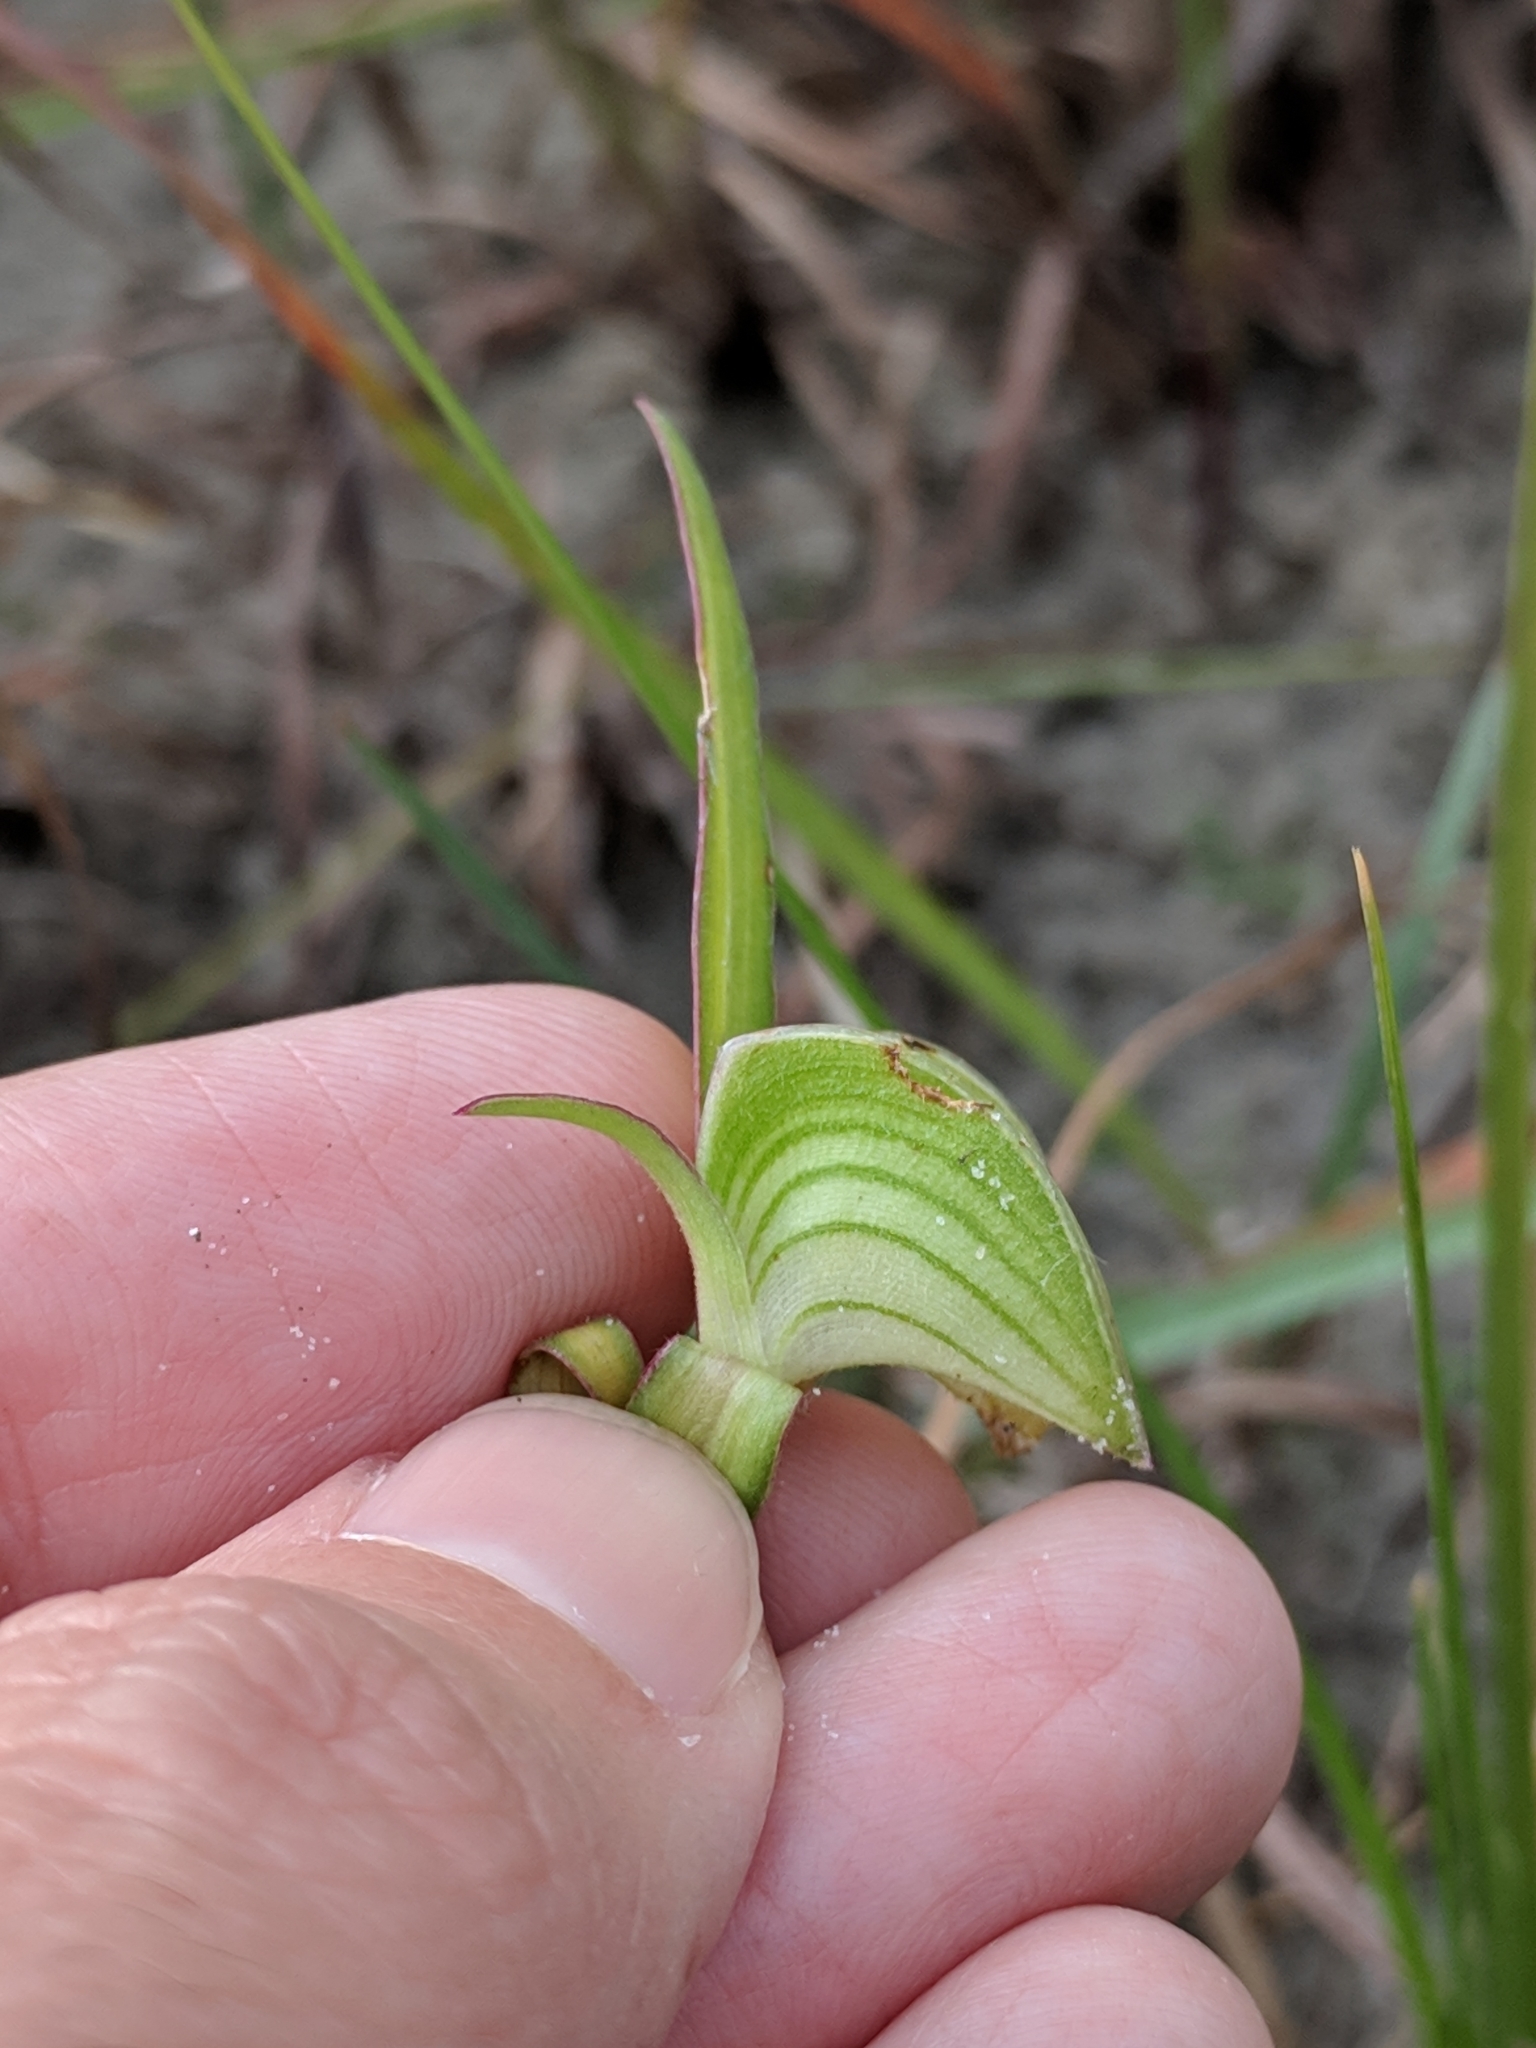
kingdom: Plantae
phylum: Tracheophyta
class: Liliopsida
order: Commelinales
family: Commelinaceae
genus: Commelina
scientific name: Commelina erecta
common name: Blousel blommetjie
